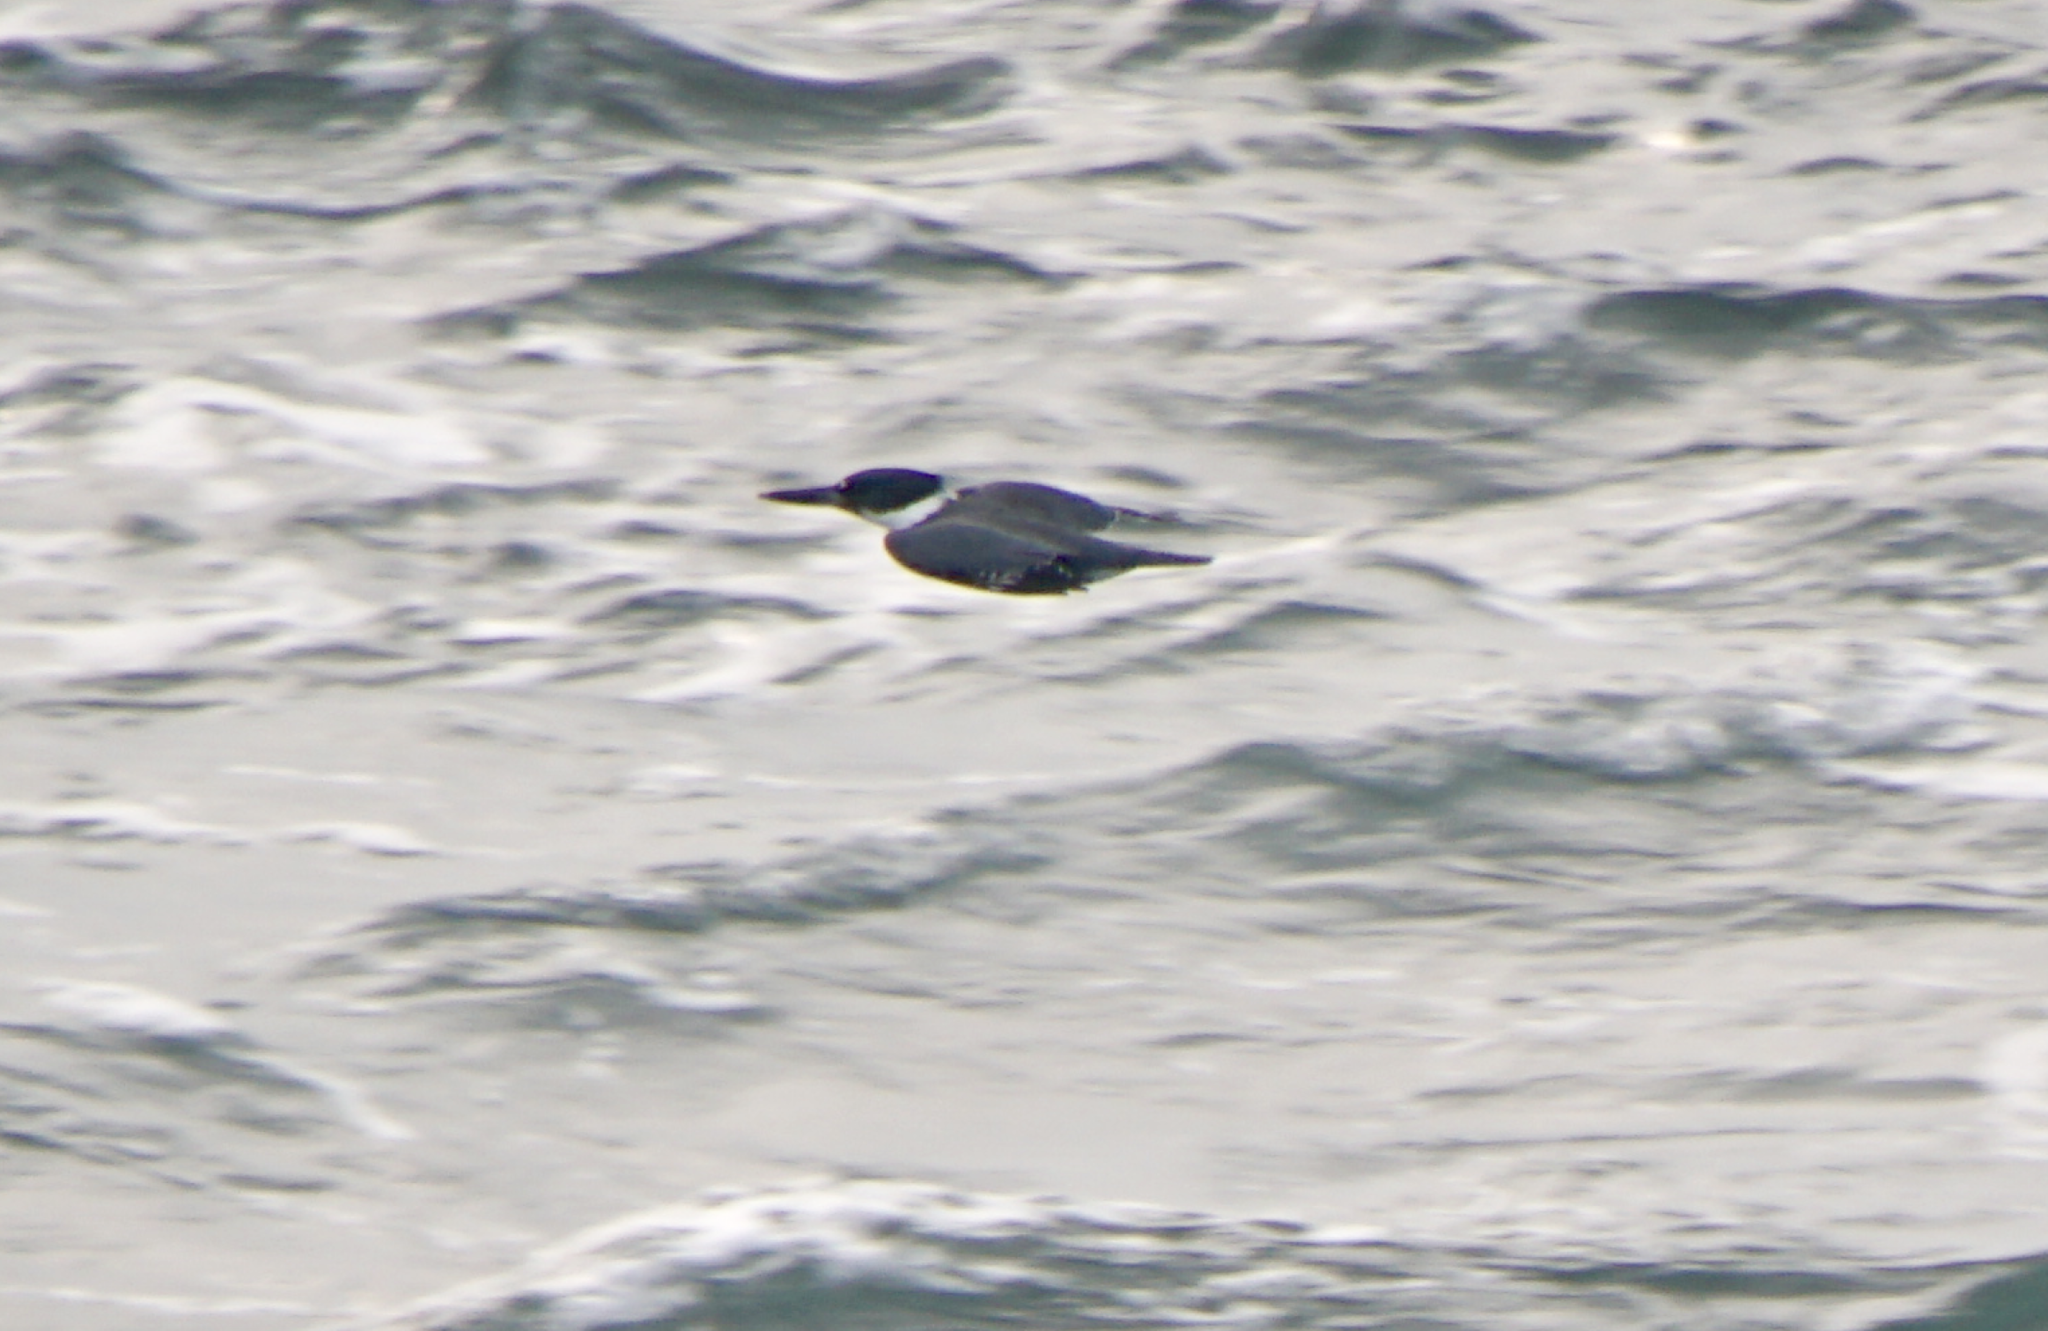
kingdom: Animalia
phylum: Chordata
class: Aves
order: Coraciiformes
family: Alcedinidae
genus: Megaceryle
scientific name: Megaceryle alcyon
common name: Belted kingfisher
